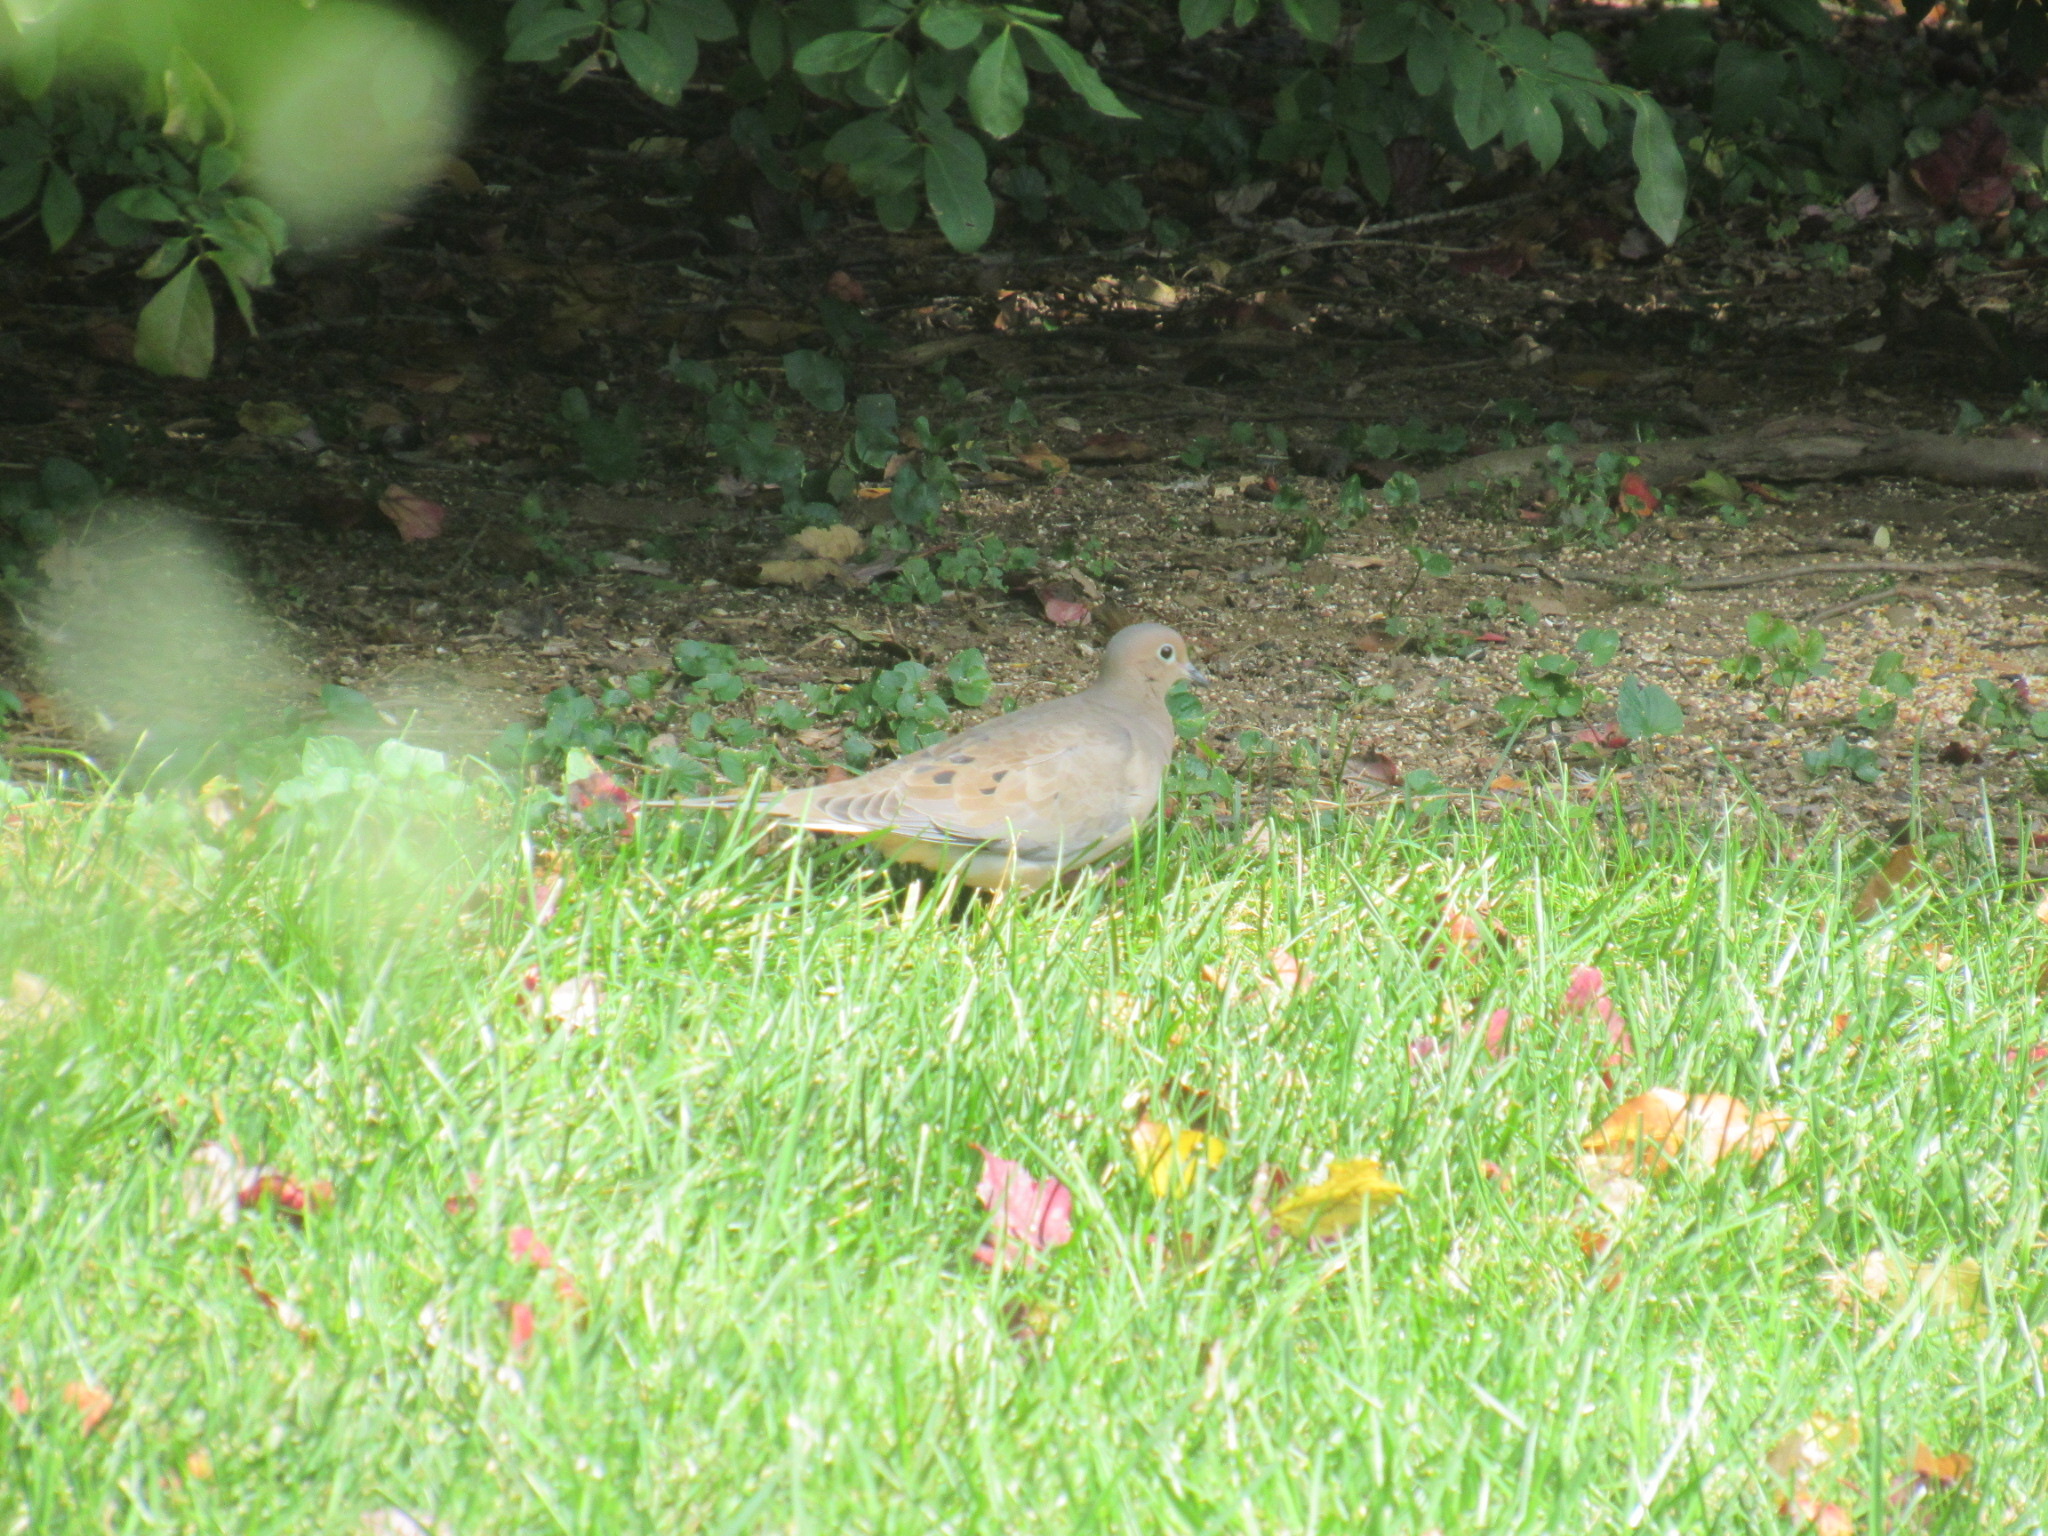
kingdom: Animalia
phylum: Chordata
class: Aves
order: Columbiformes
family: Columbidae
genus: Zenaida
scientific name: Zenaida macroura
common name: Mourning dove
